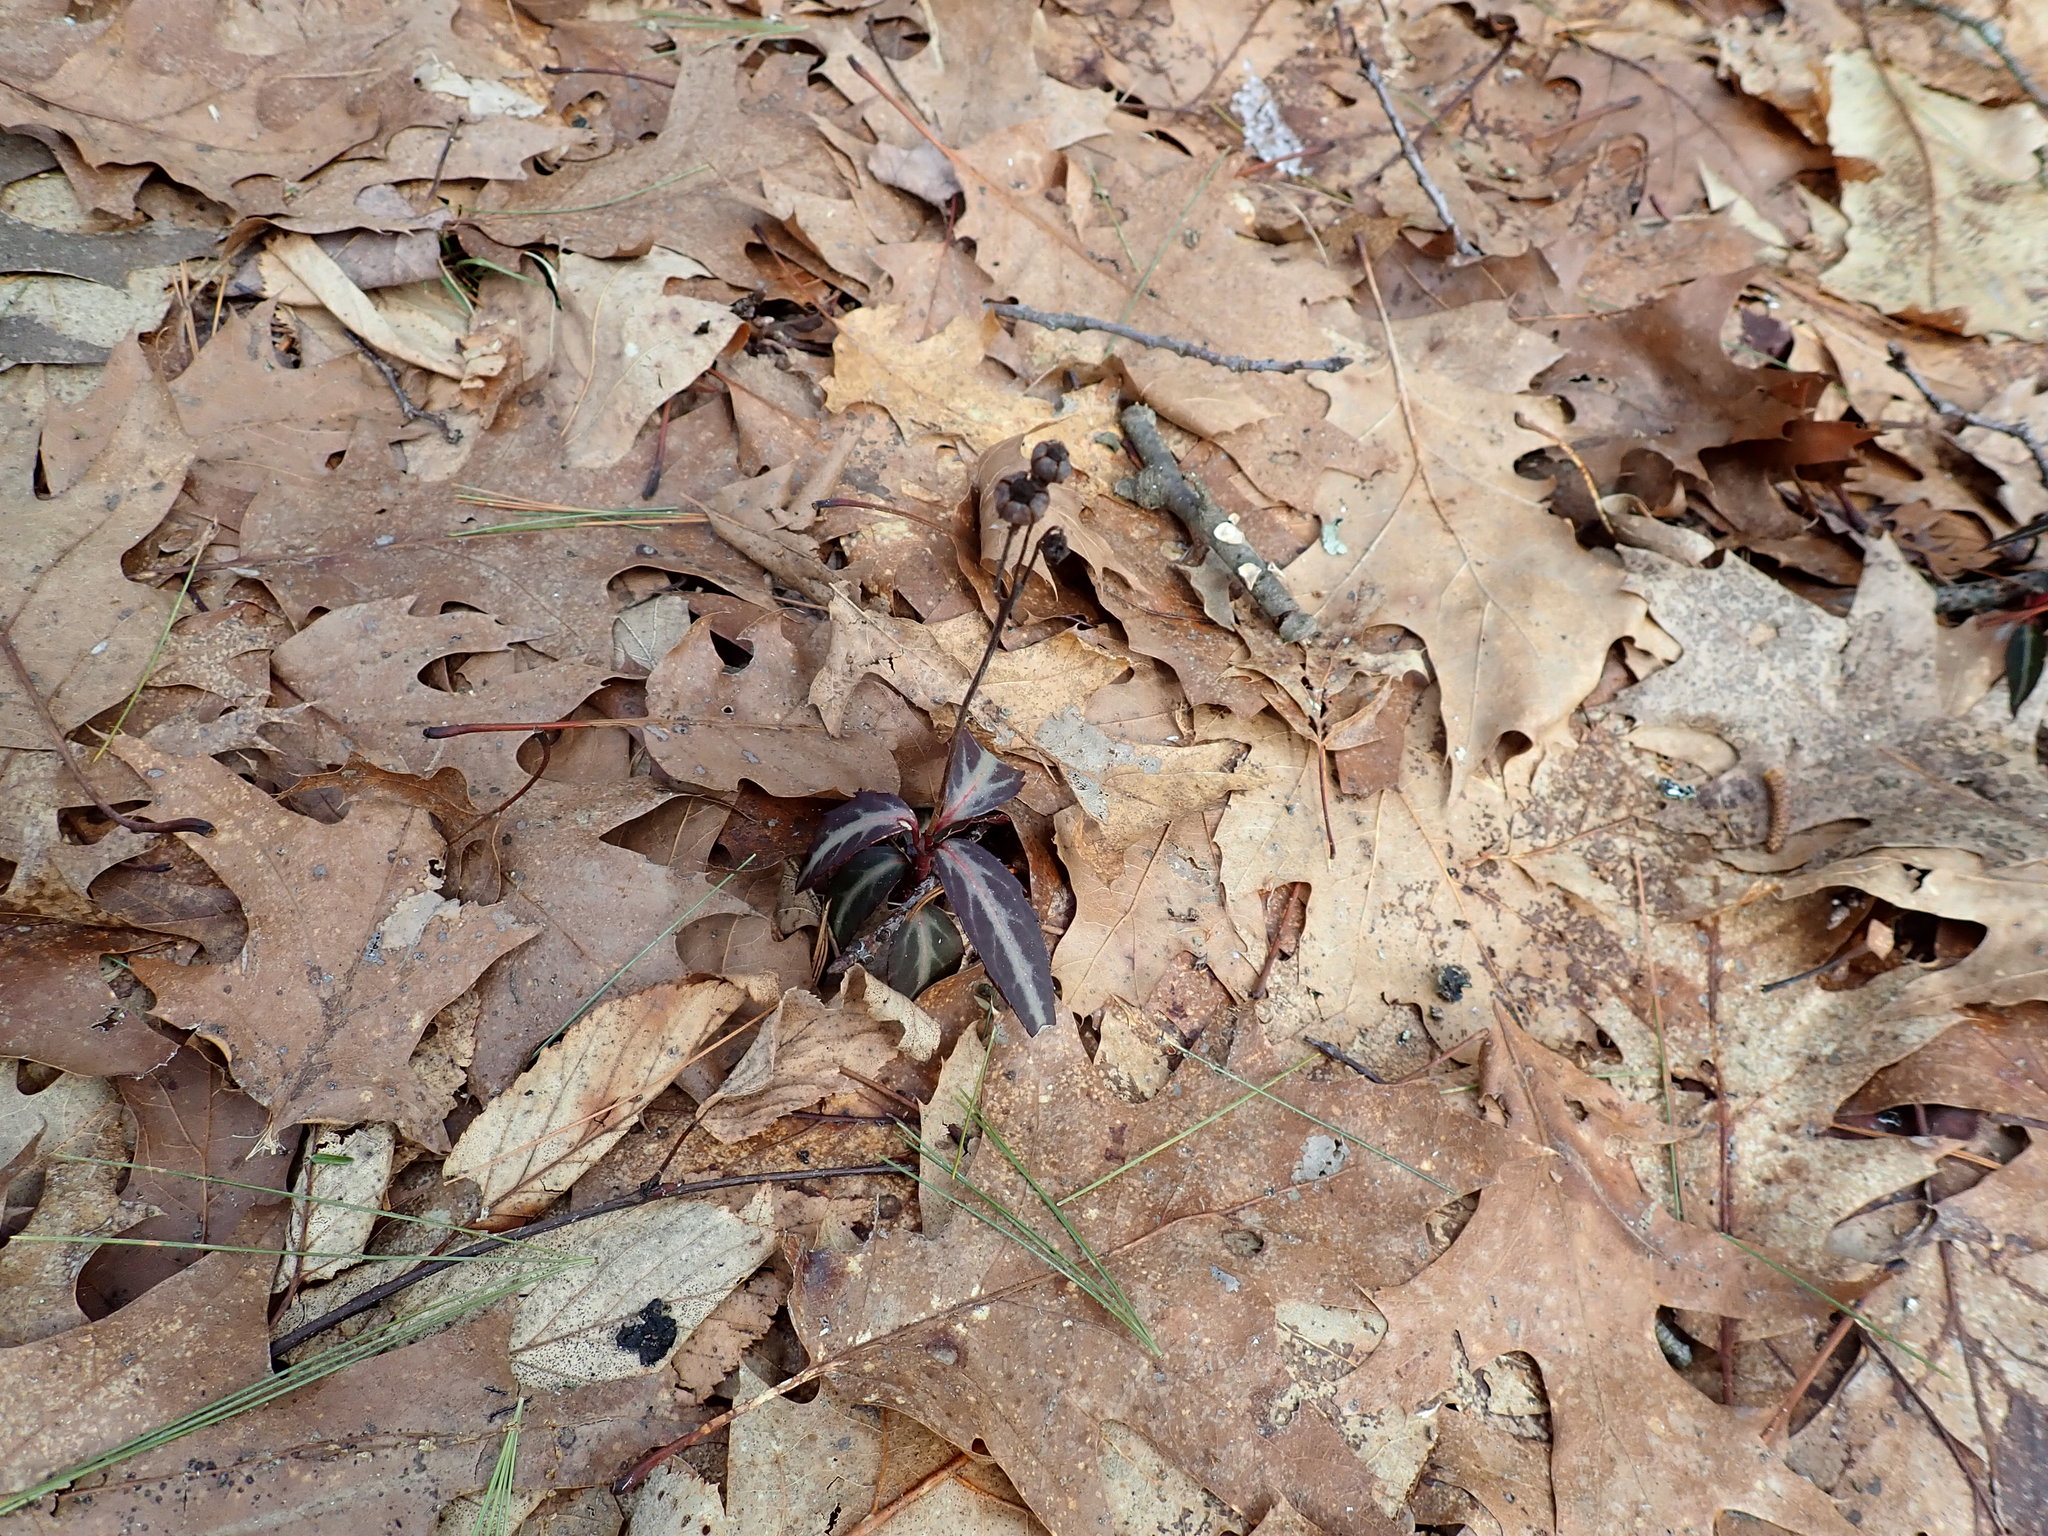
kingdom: Plantae
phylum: Tracheophyta
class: Magnoliopsida
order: Ericales
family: Ericaceae
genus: Chimaphila
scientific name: Chimaphila maculata
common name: Spotted pipsissewa
